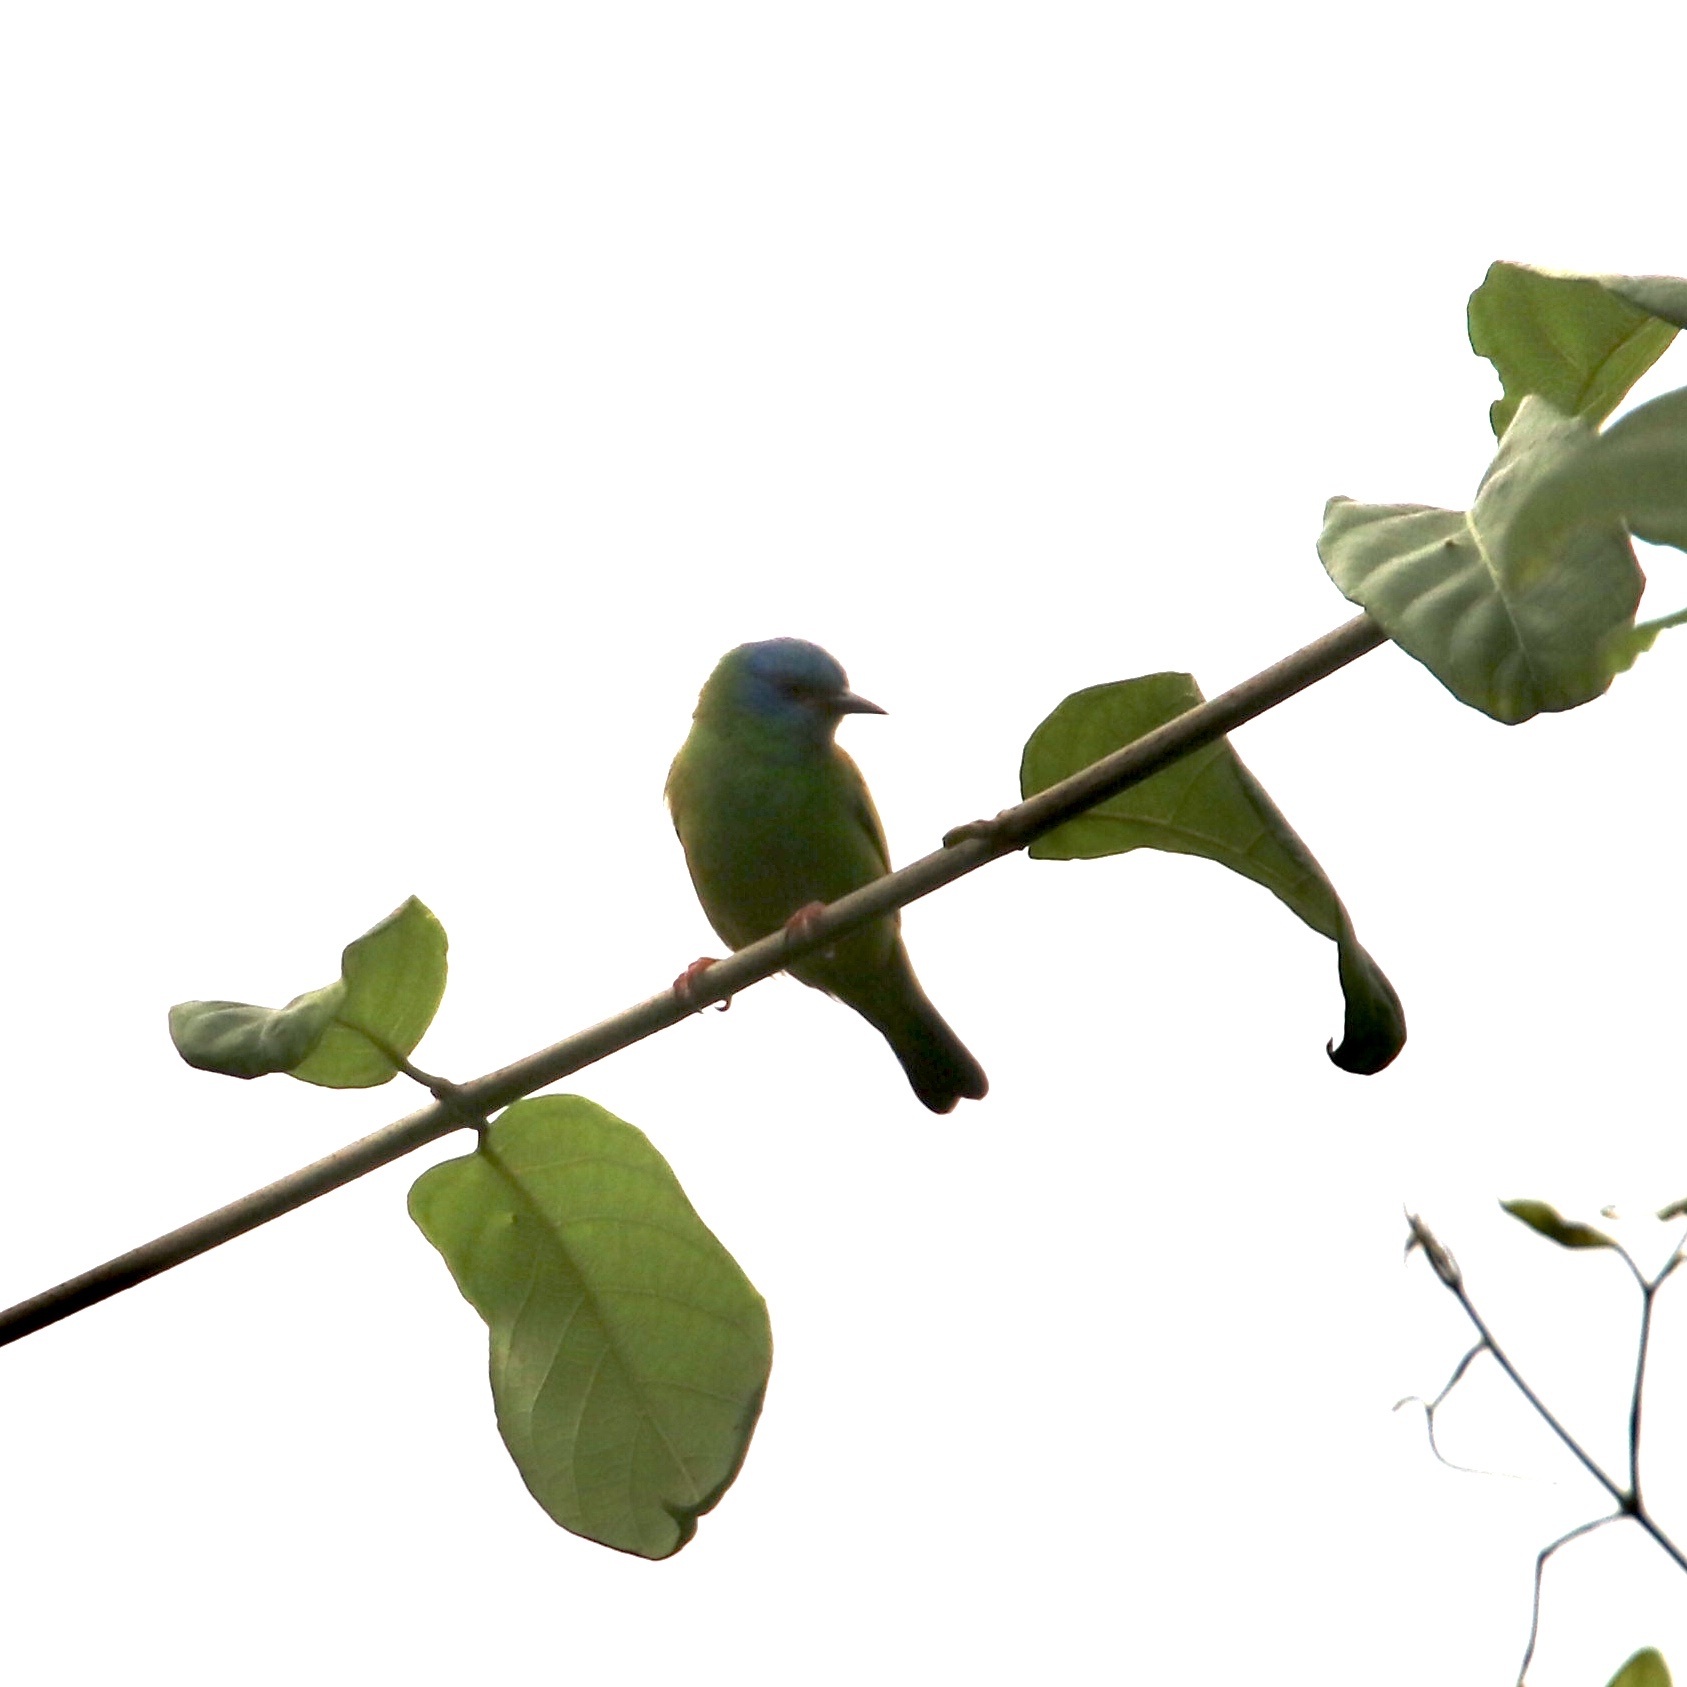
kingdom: Animalia
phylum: Chordata
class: Aves
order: Passeriformes
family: Thraupidae
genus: Dacnis
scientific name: Dacnis cayana
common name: Blue dacnis
